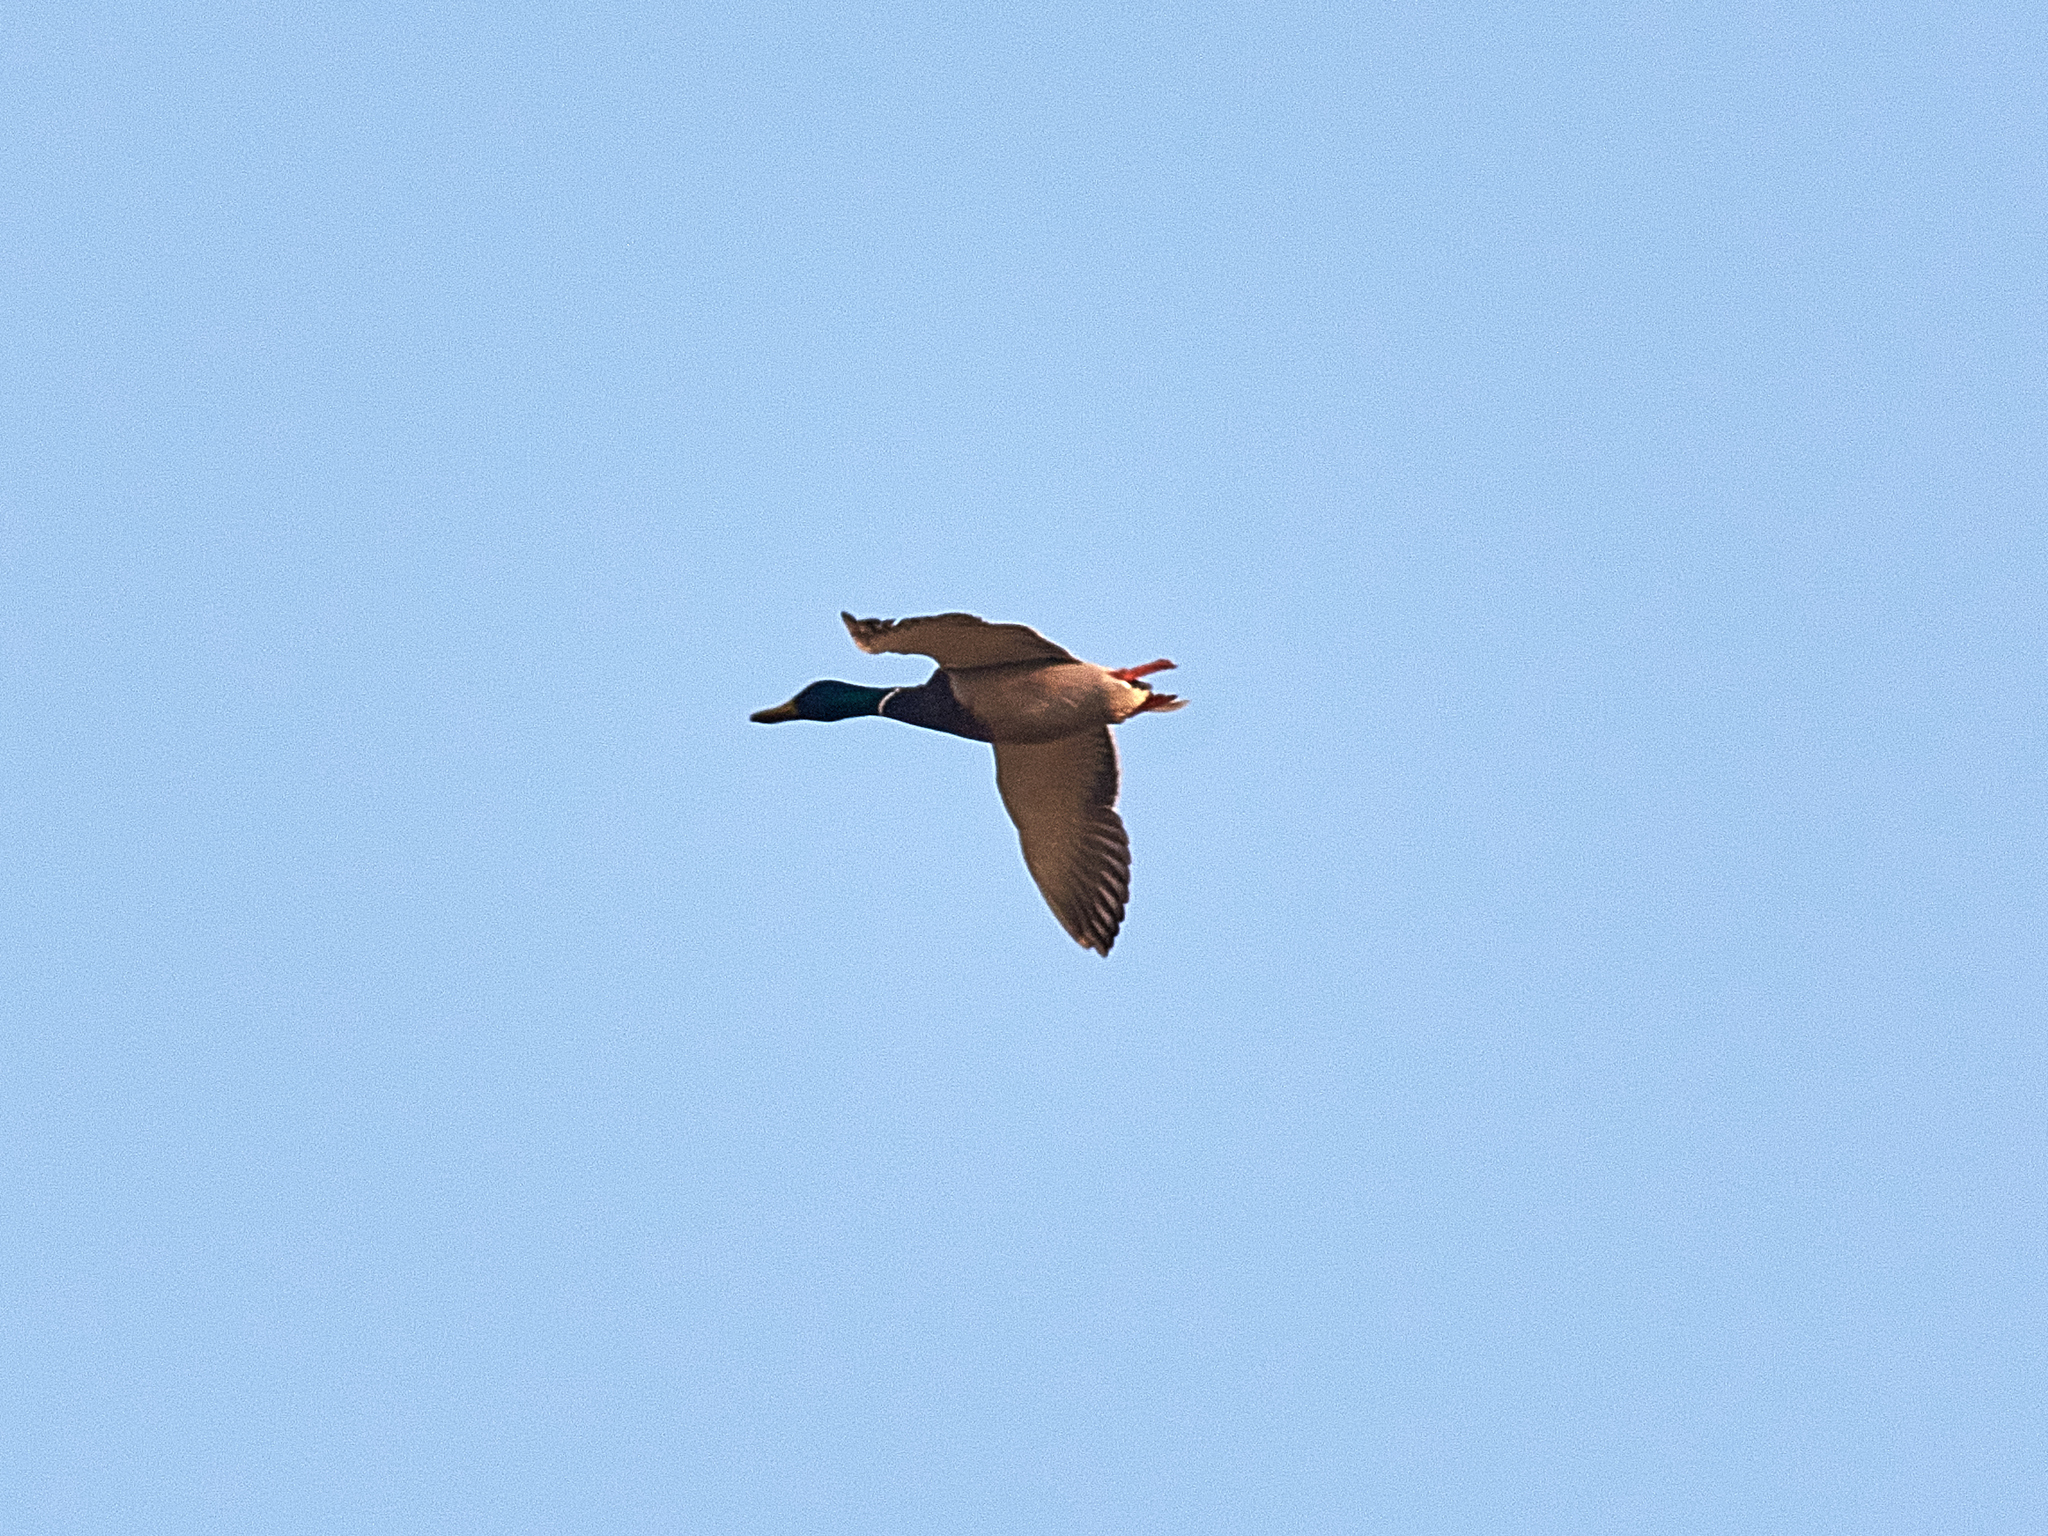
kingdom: Animalia
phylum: Chordata
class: Aves
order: Anseriformes
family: Anatidae
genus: Anas
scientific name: Anas platyrhynchos
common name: Mallard
